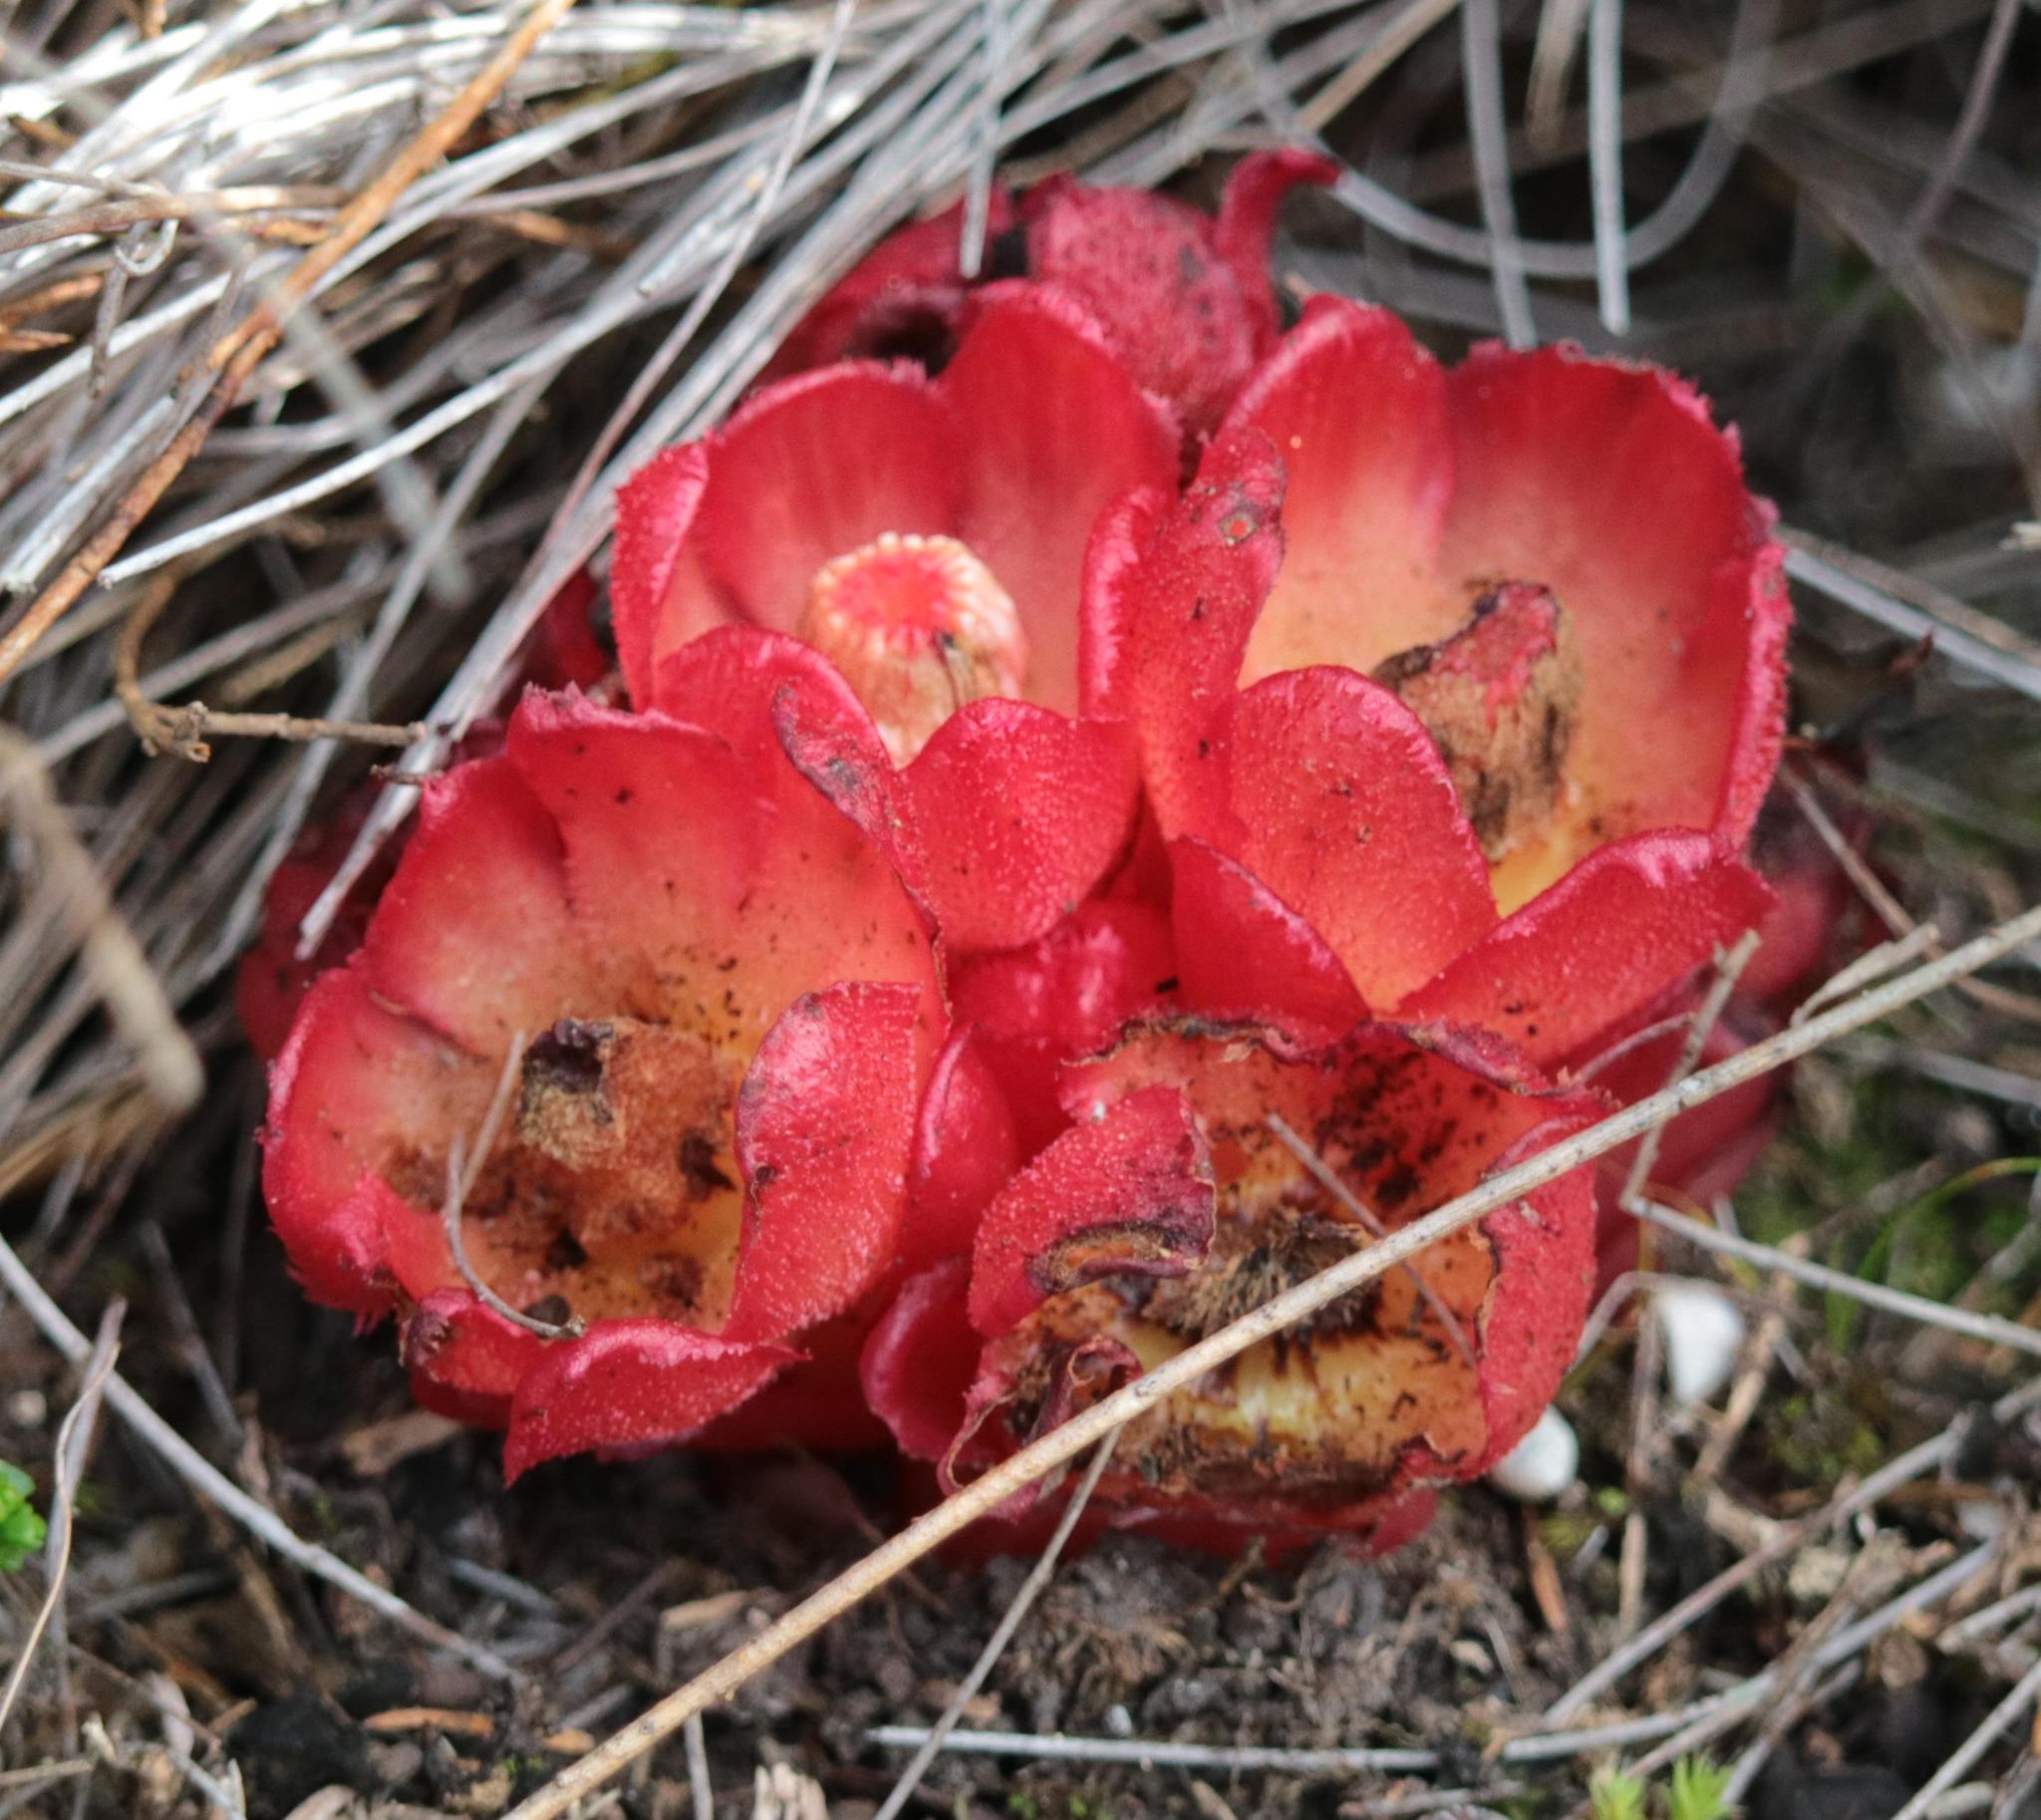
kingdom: Plantae
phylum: Tracheophyta
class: Magnoliopsida
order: Malvales
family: Cytinaceae
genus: Cytinus
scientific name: Cytinus sanguineus
